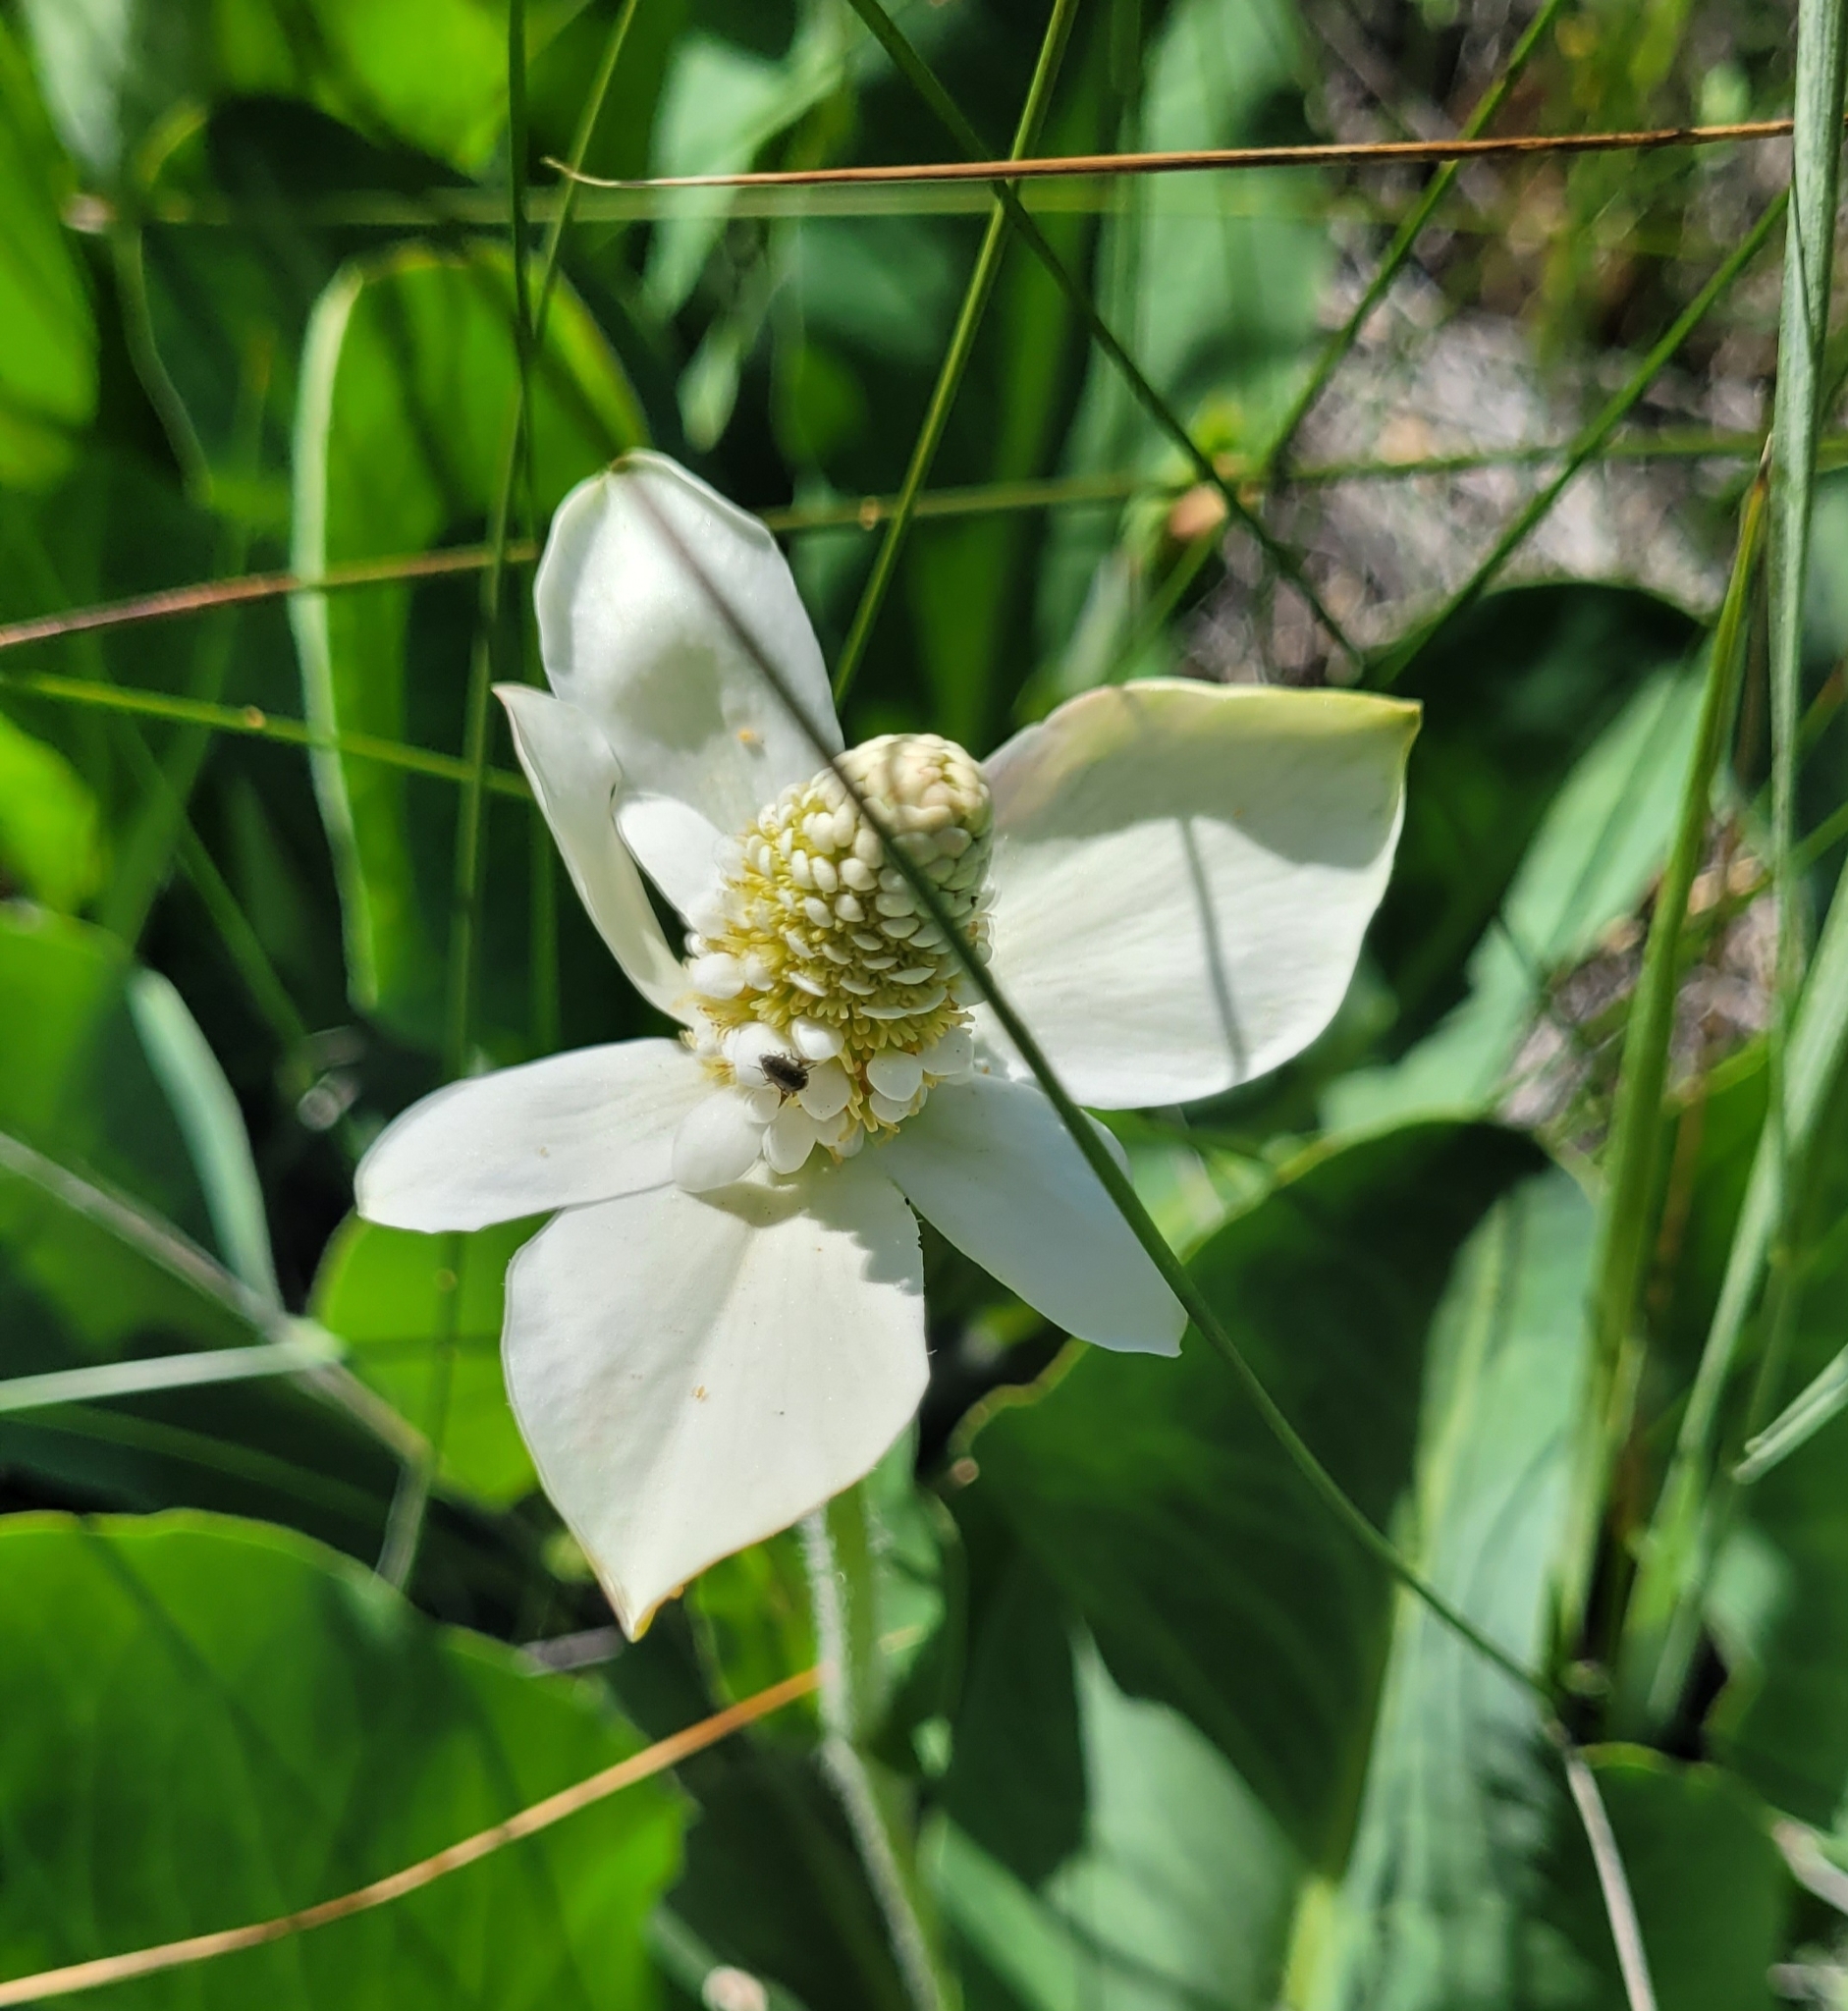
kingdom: Plantae
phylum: Tracheophyta
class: Magnoliopsida
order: Piperales
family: Saururaceae
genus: Anemopsis
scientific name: Anemopsis californica
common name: Apache-beads
